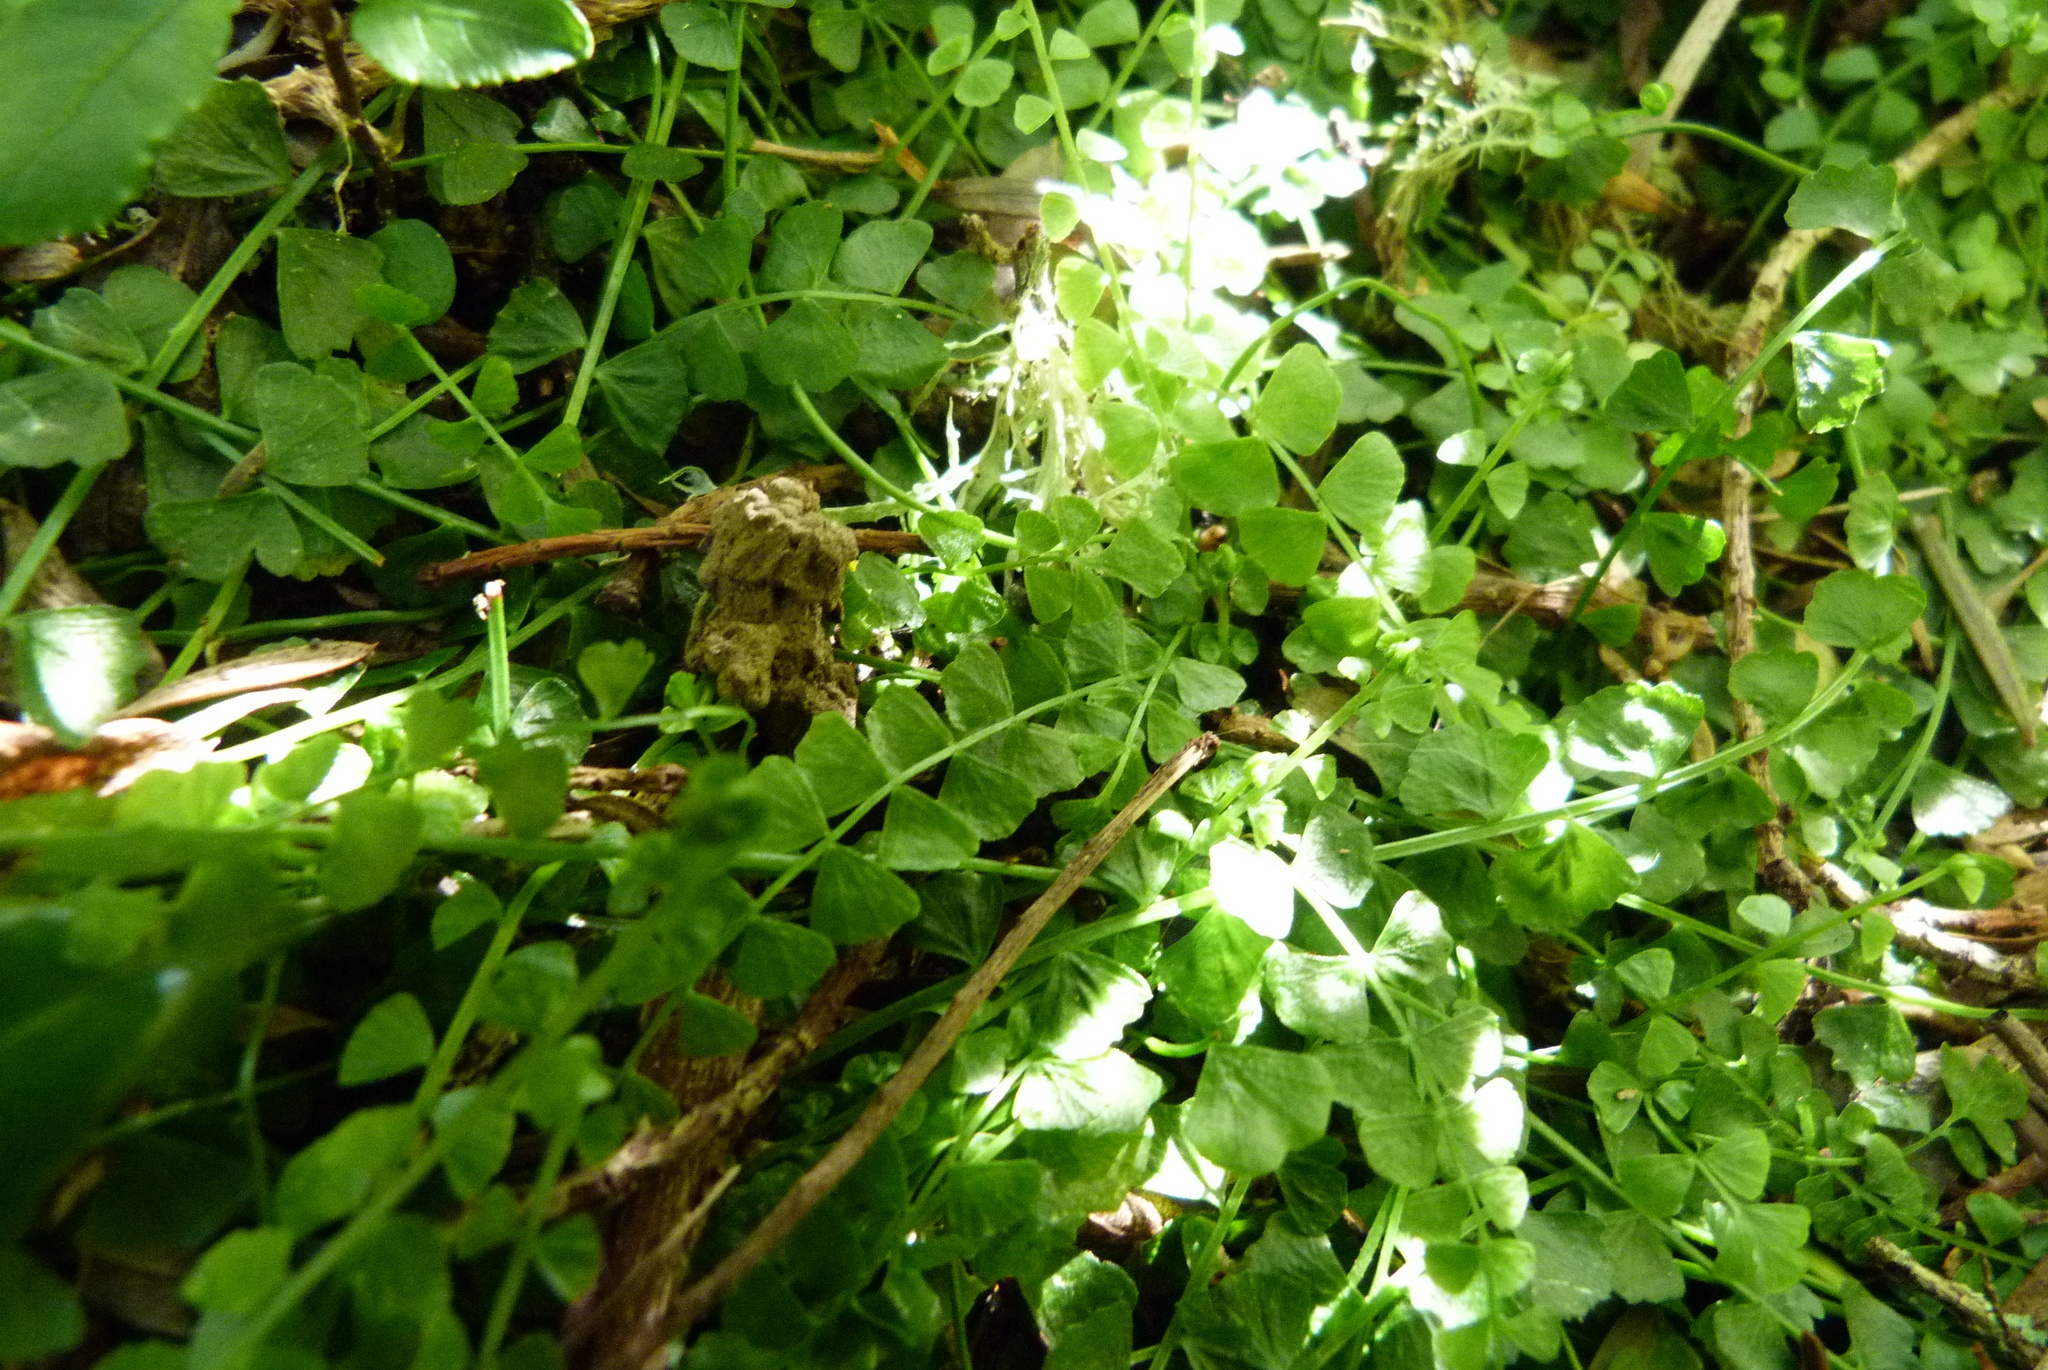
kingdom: Plantae
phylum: Tracheophyta
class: Polypodiopsida
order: Polypodiales
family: Aspleniaceae
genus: Asplenium
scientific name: Asplenium flabellifolium
